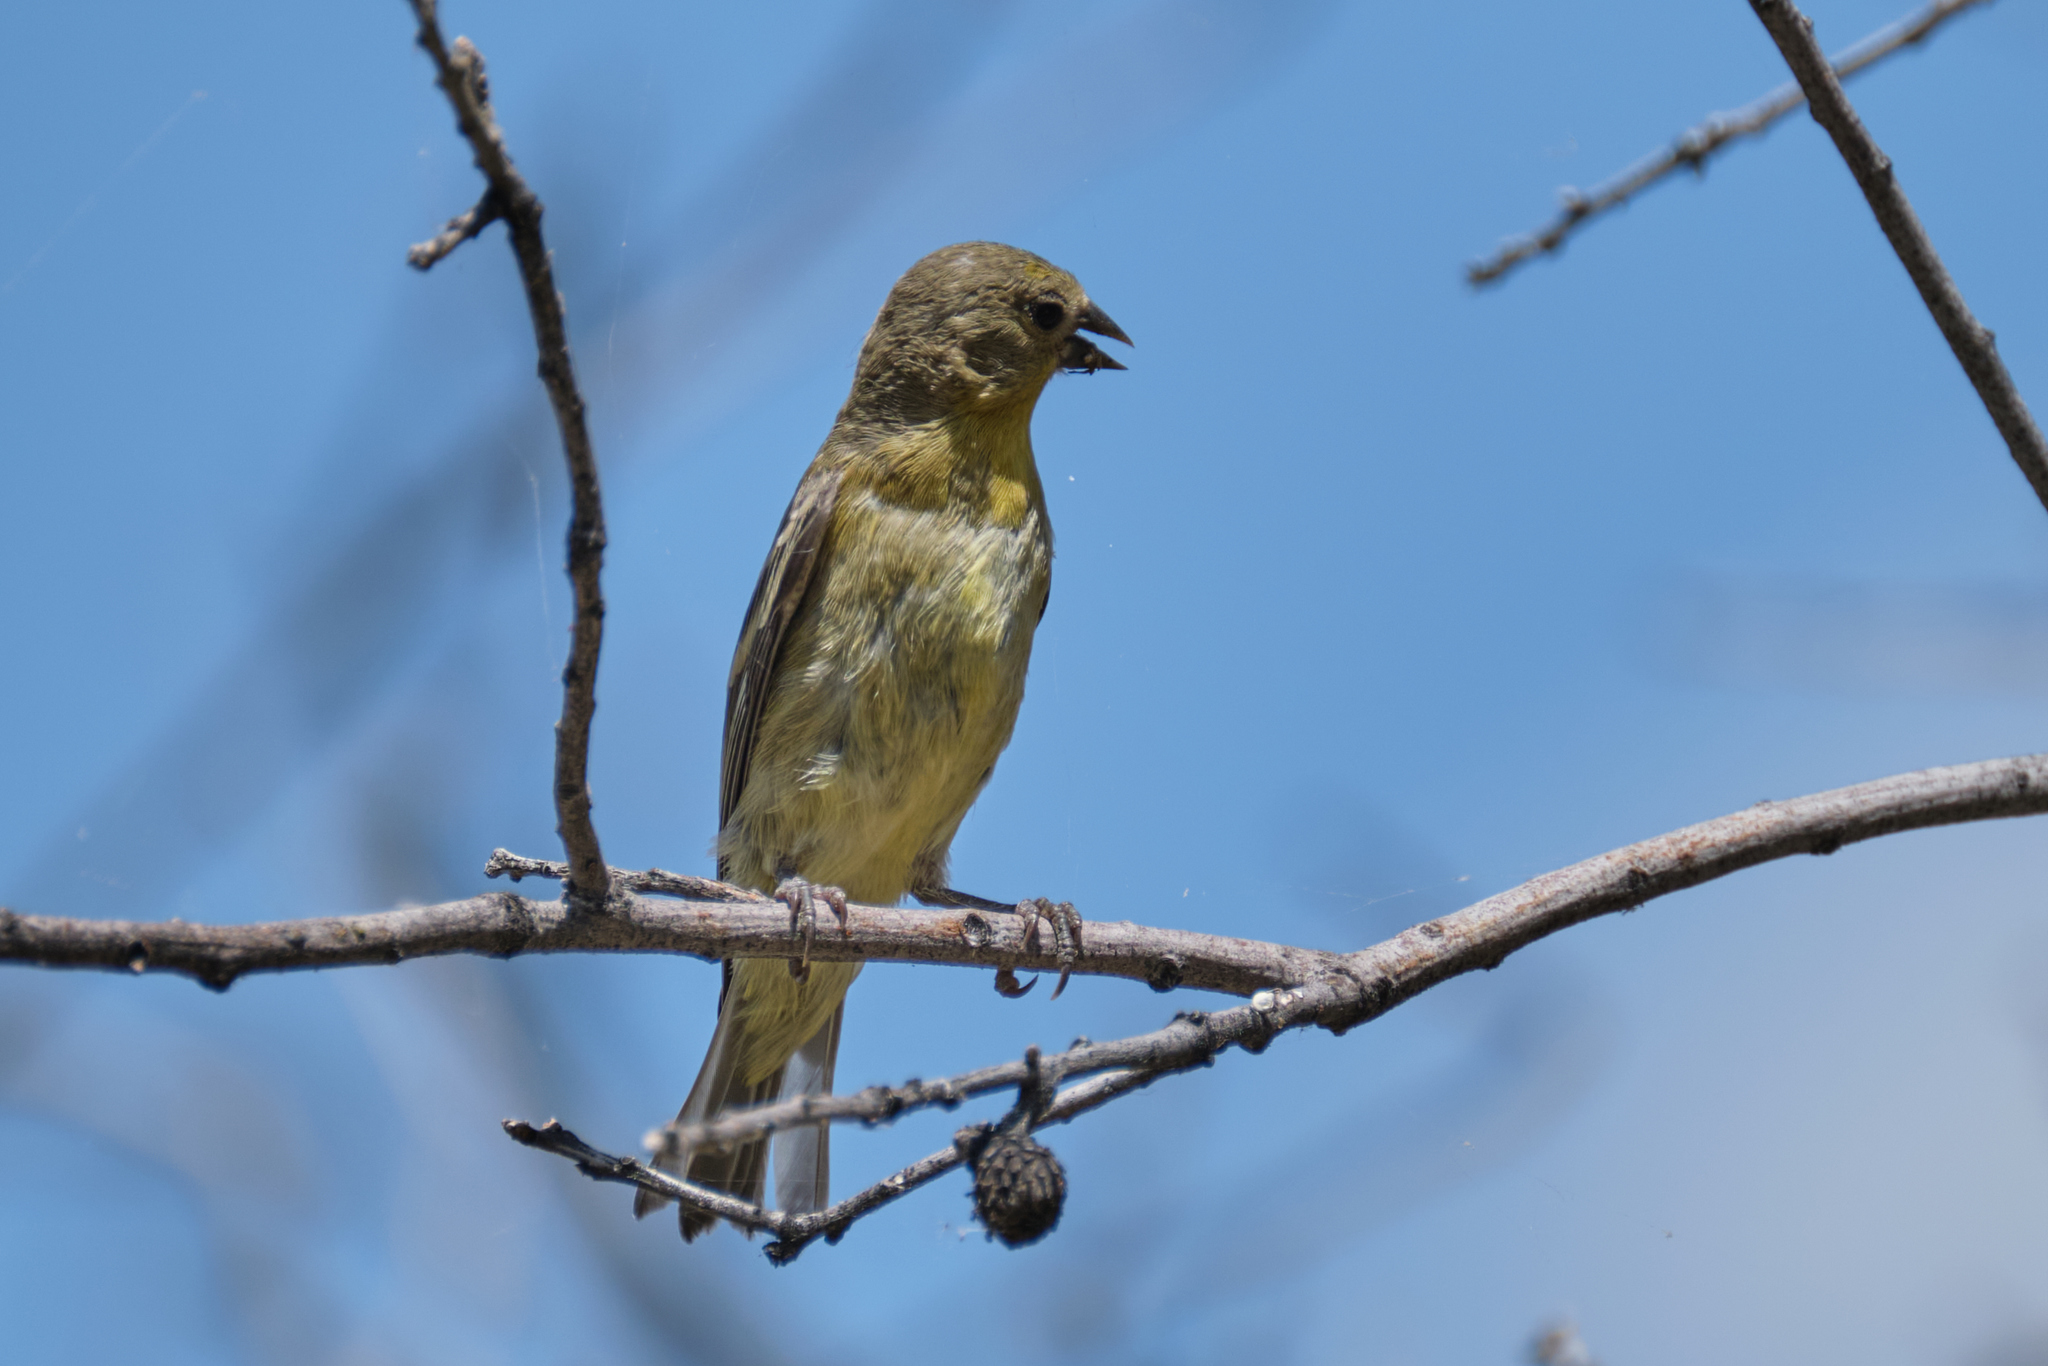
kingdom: Animalia
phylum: Chordata
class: Aves
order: Passeriformes
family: Fringillidae
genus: Spinus
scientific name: Spinus psaltria
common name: Lesser goldfinch
